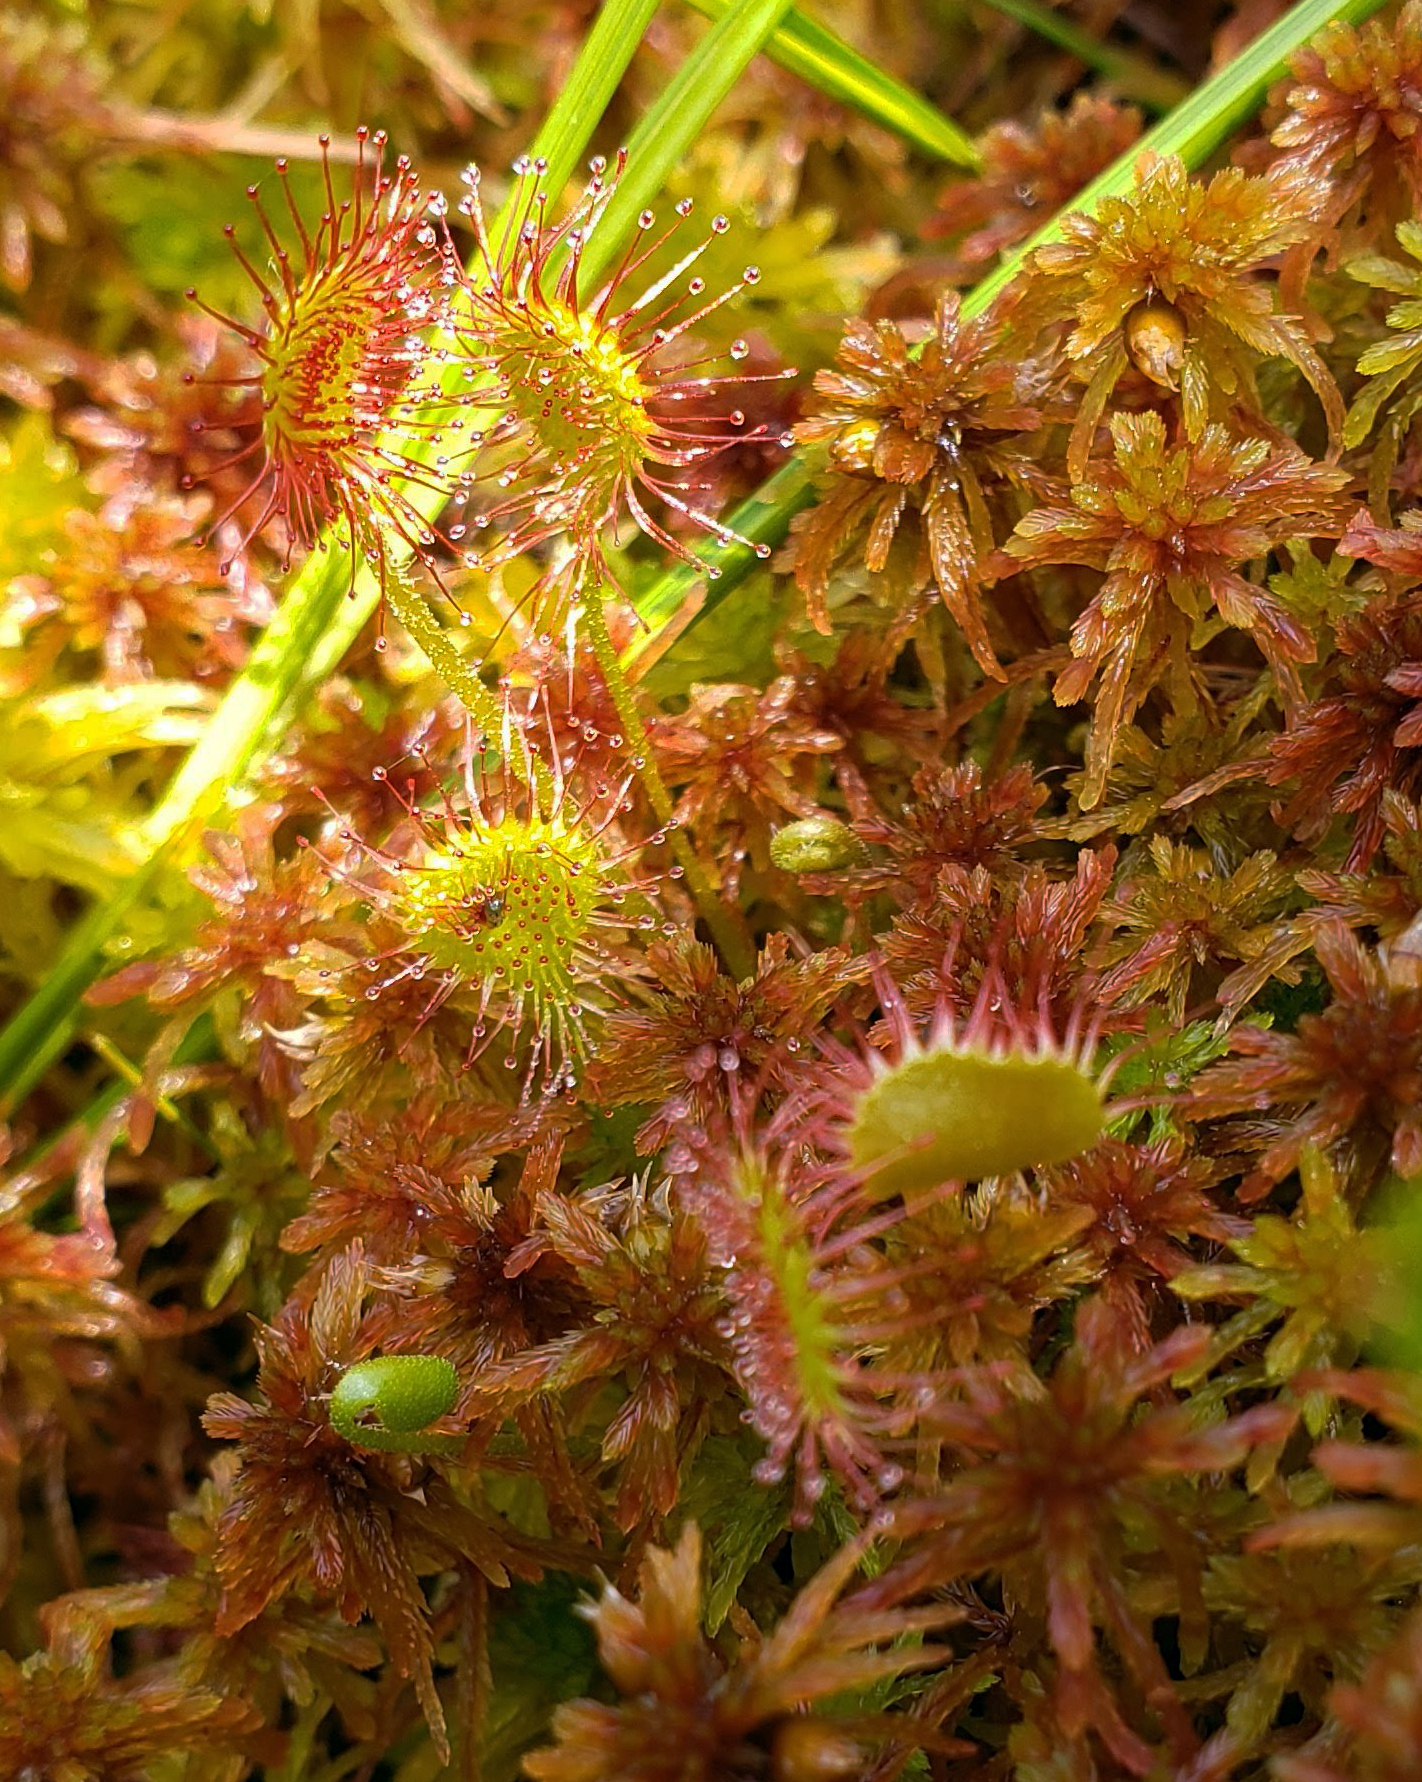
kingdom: Plantae
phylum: Tracheophyta
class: Magnoliopsida
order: Caryophyllales
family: Droseraceae
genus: Drosera
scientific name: Drosera rotundifolia
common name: Round-leaved sundew
